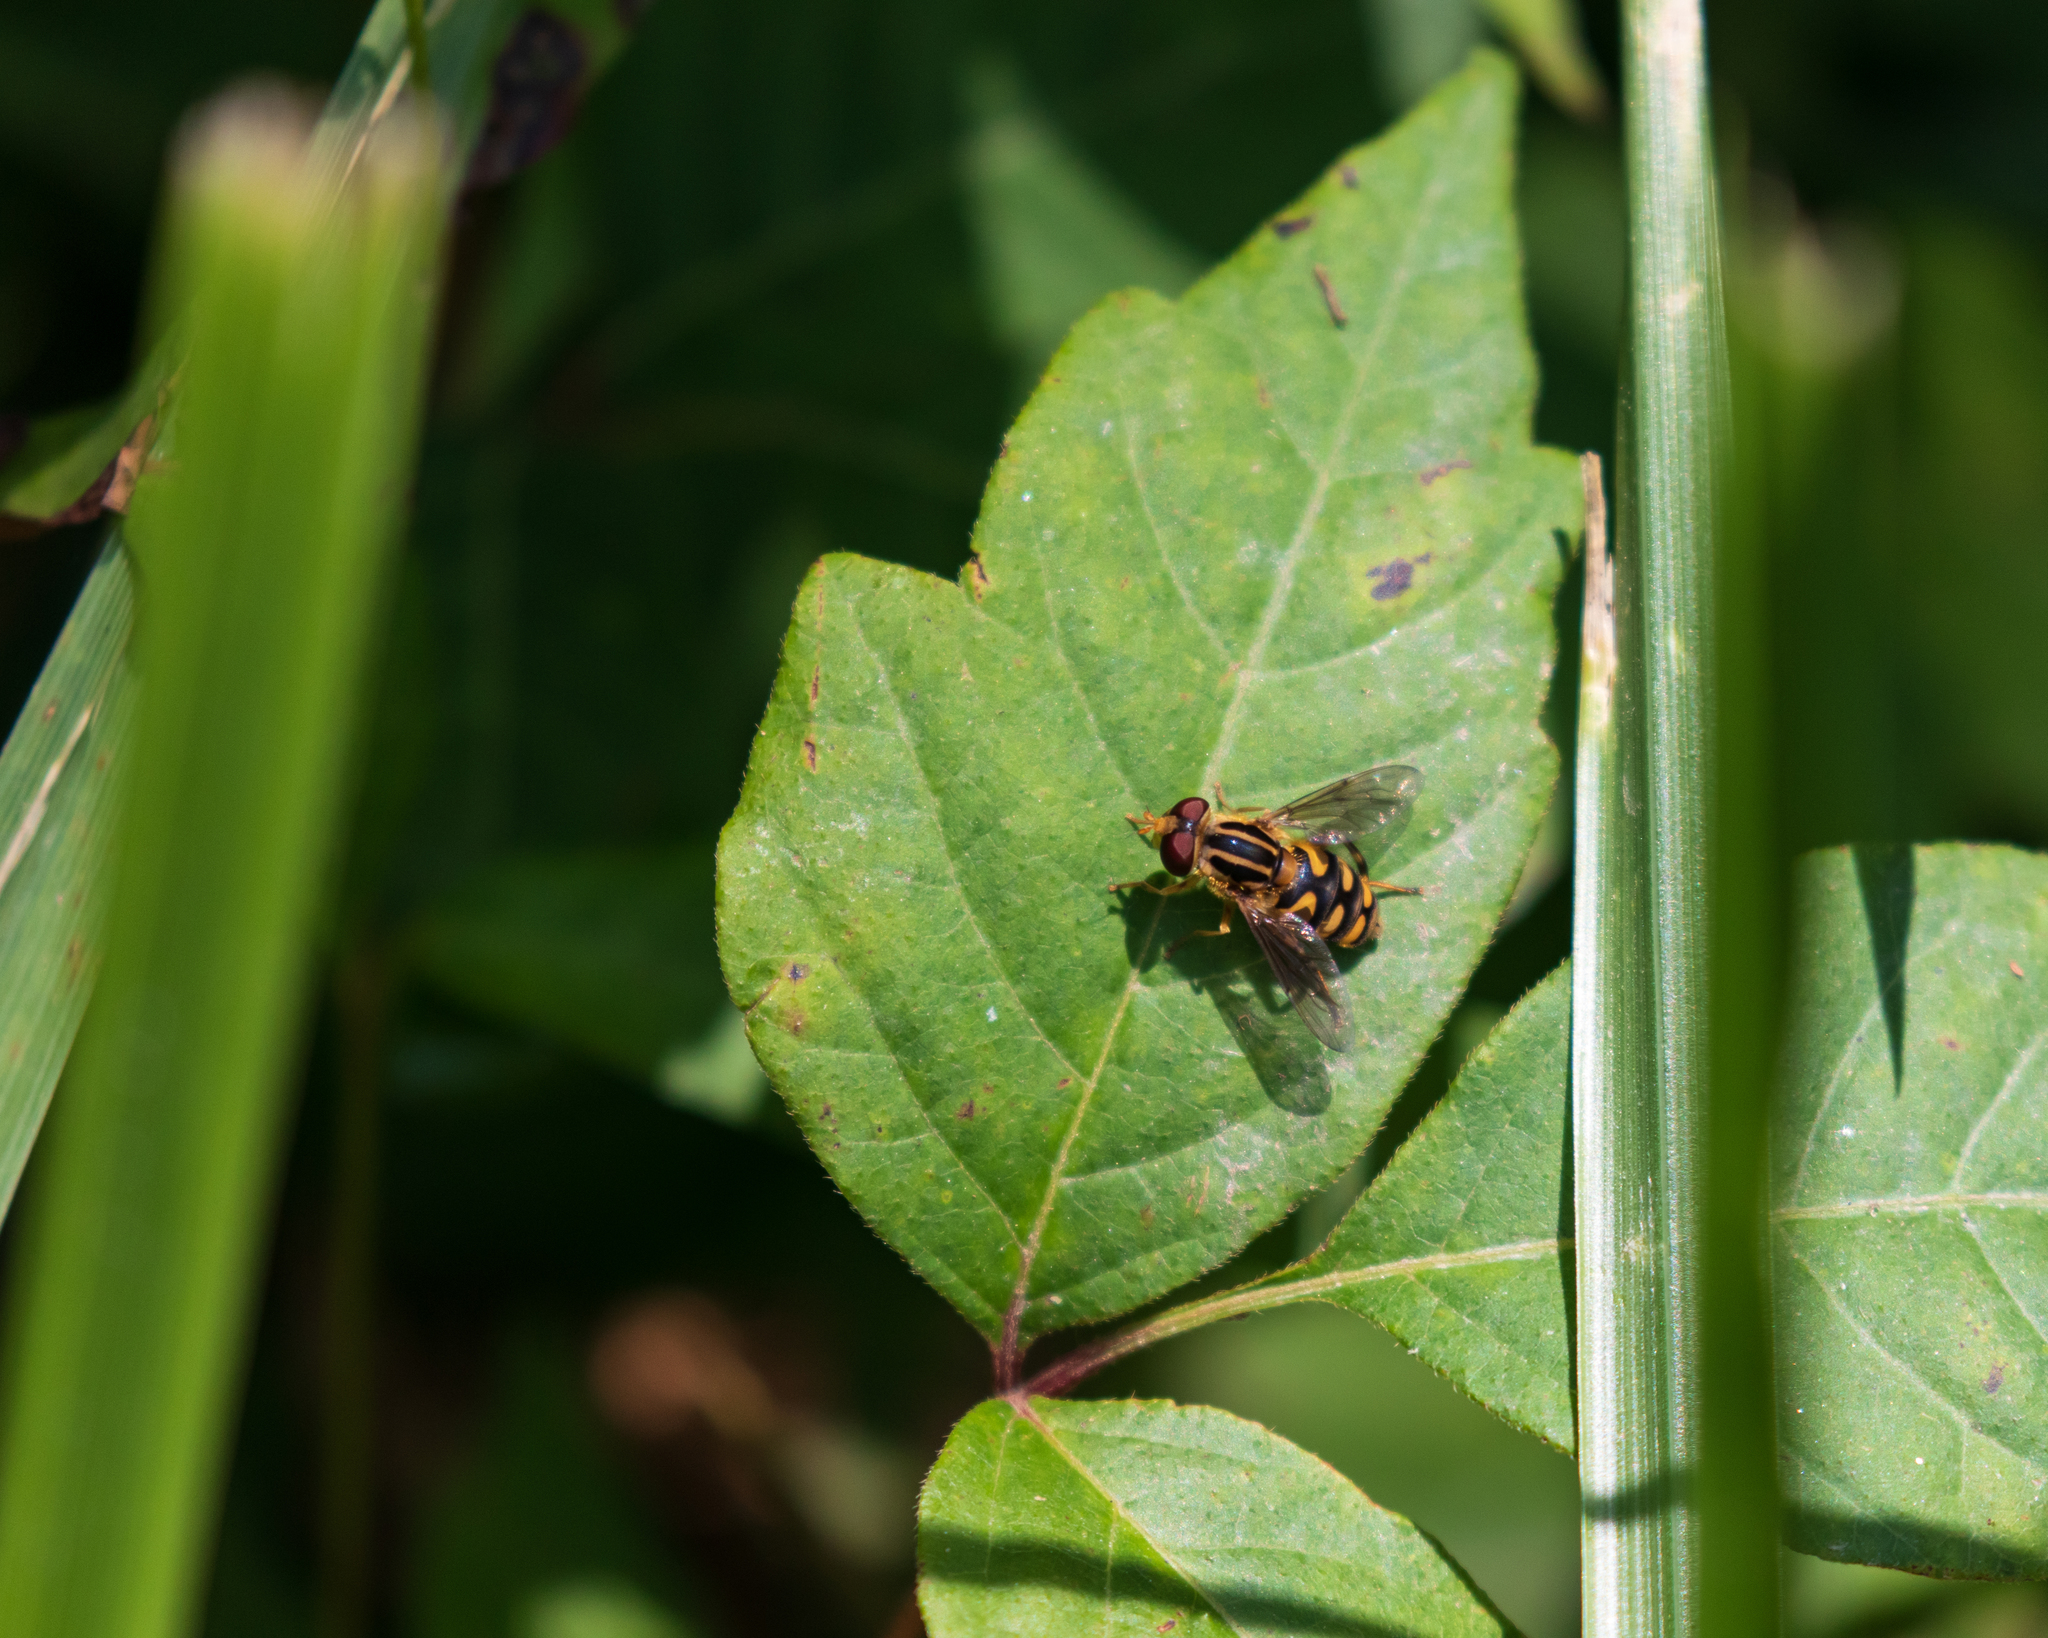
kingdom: Animalia
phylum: Arthropoda
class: Insecta
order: Diptera
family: Syrphidae
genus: Helophilus
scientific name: Helophilus fasciatus
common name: Narrow-headed marsh fly
